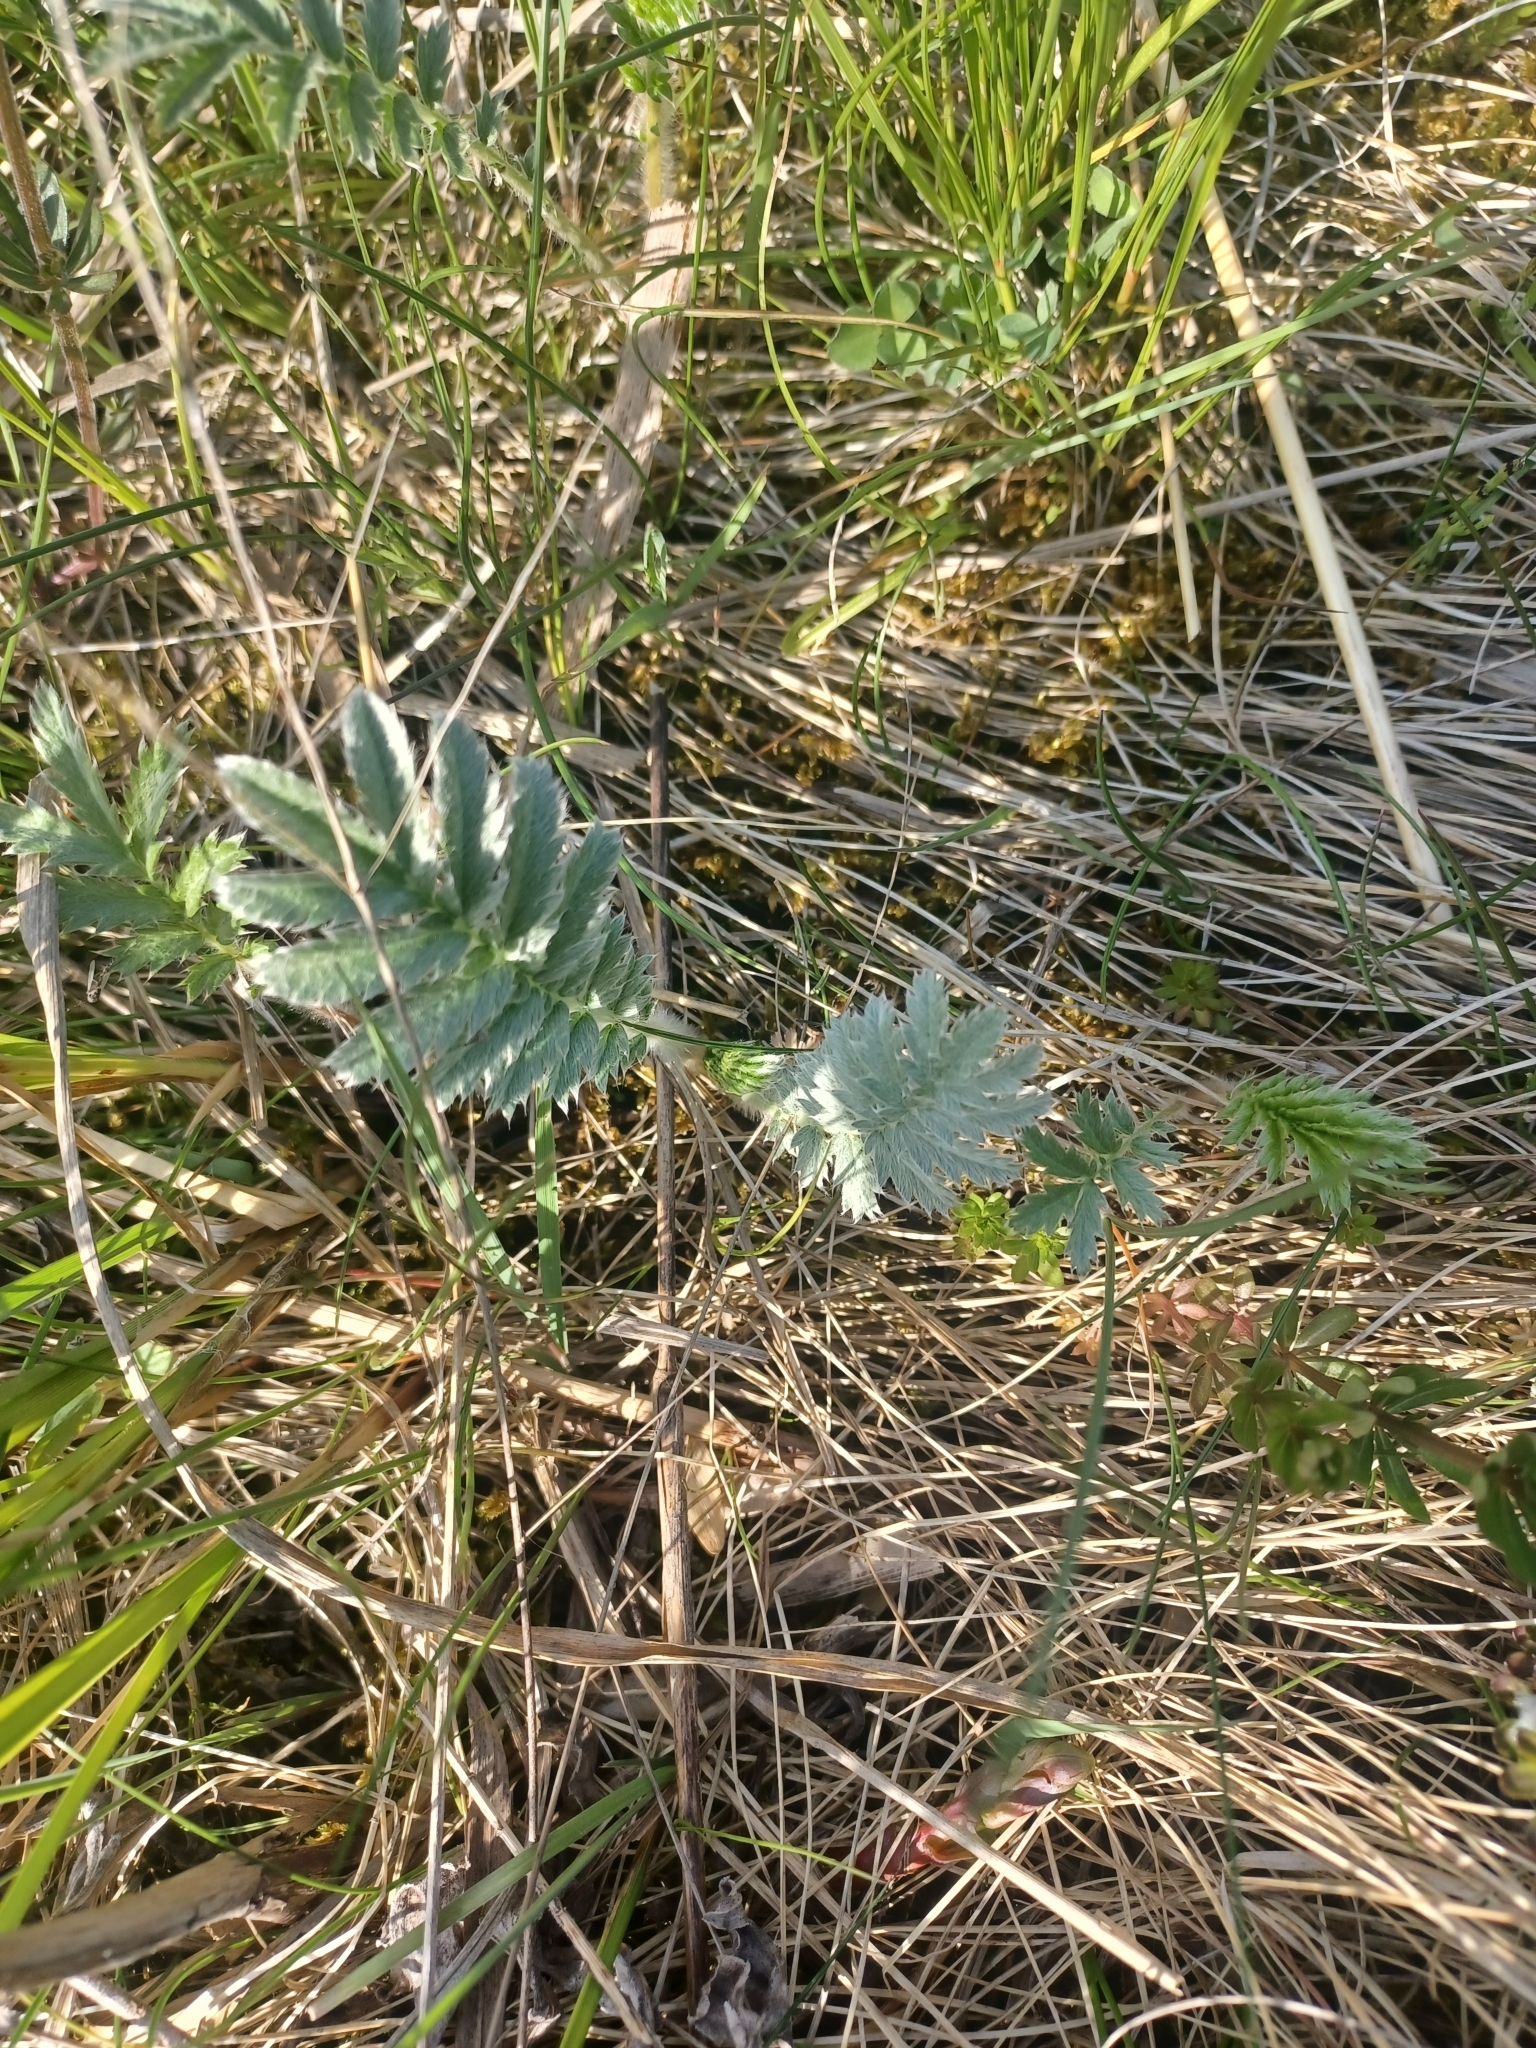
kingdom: Plantae
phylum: Tracheophyta
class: Magnoliopsida
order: Rosales
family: Rosaceae
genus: Argentina
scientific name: Argentina anserina
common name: Common silverweed
